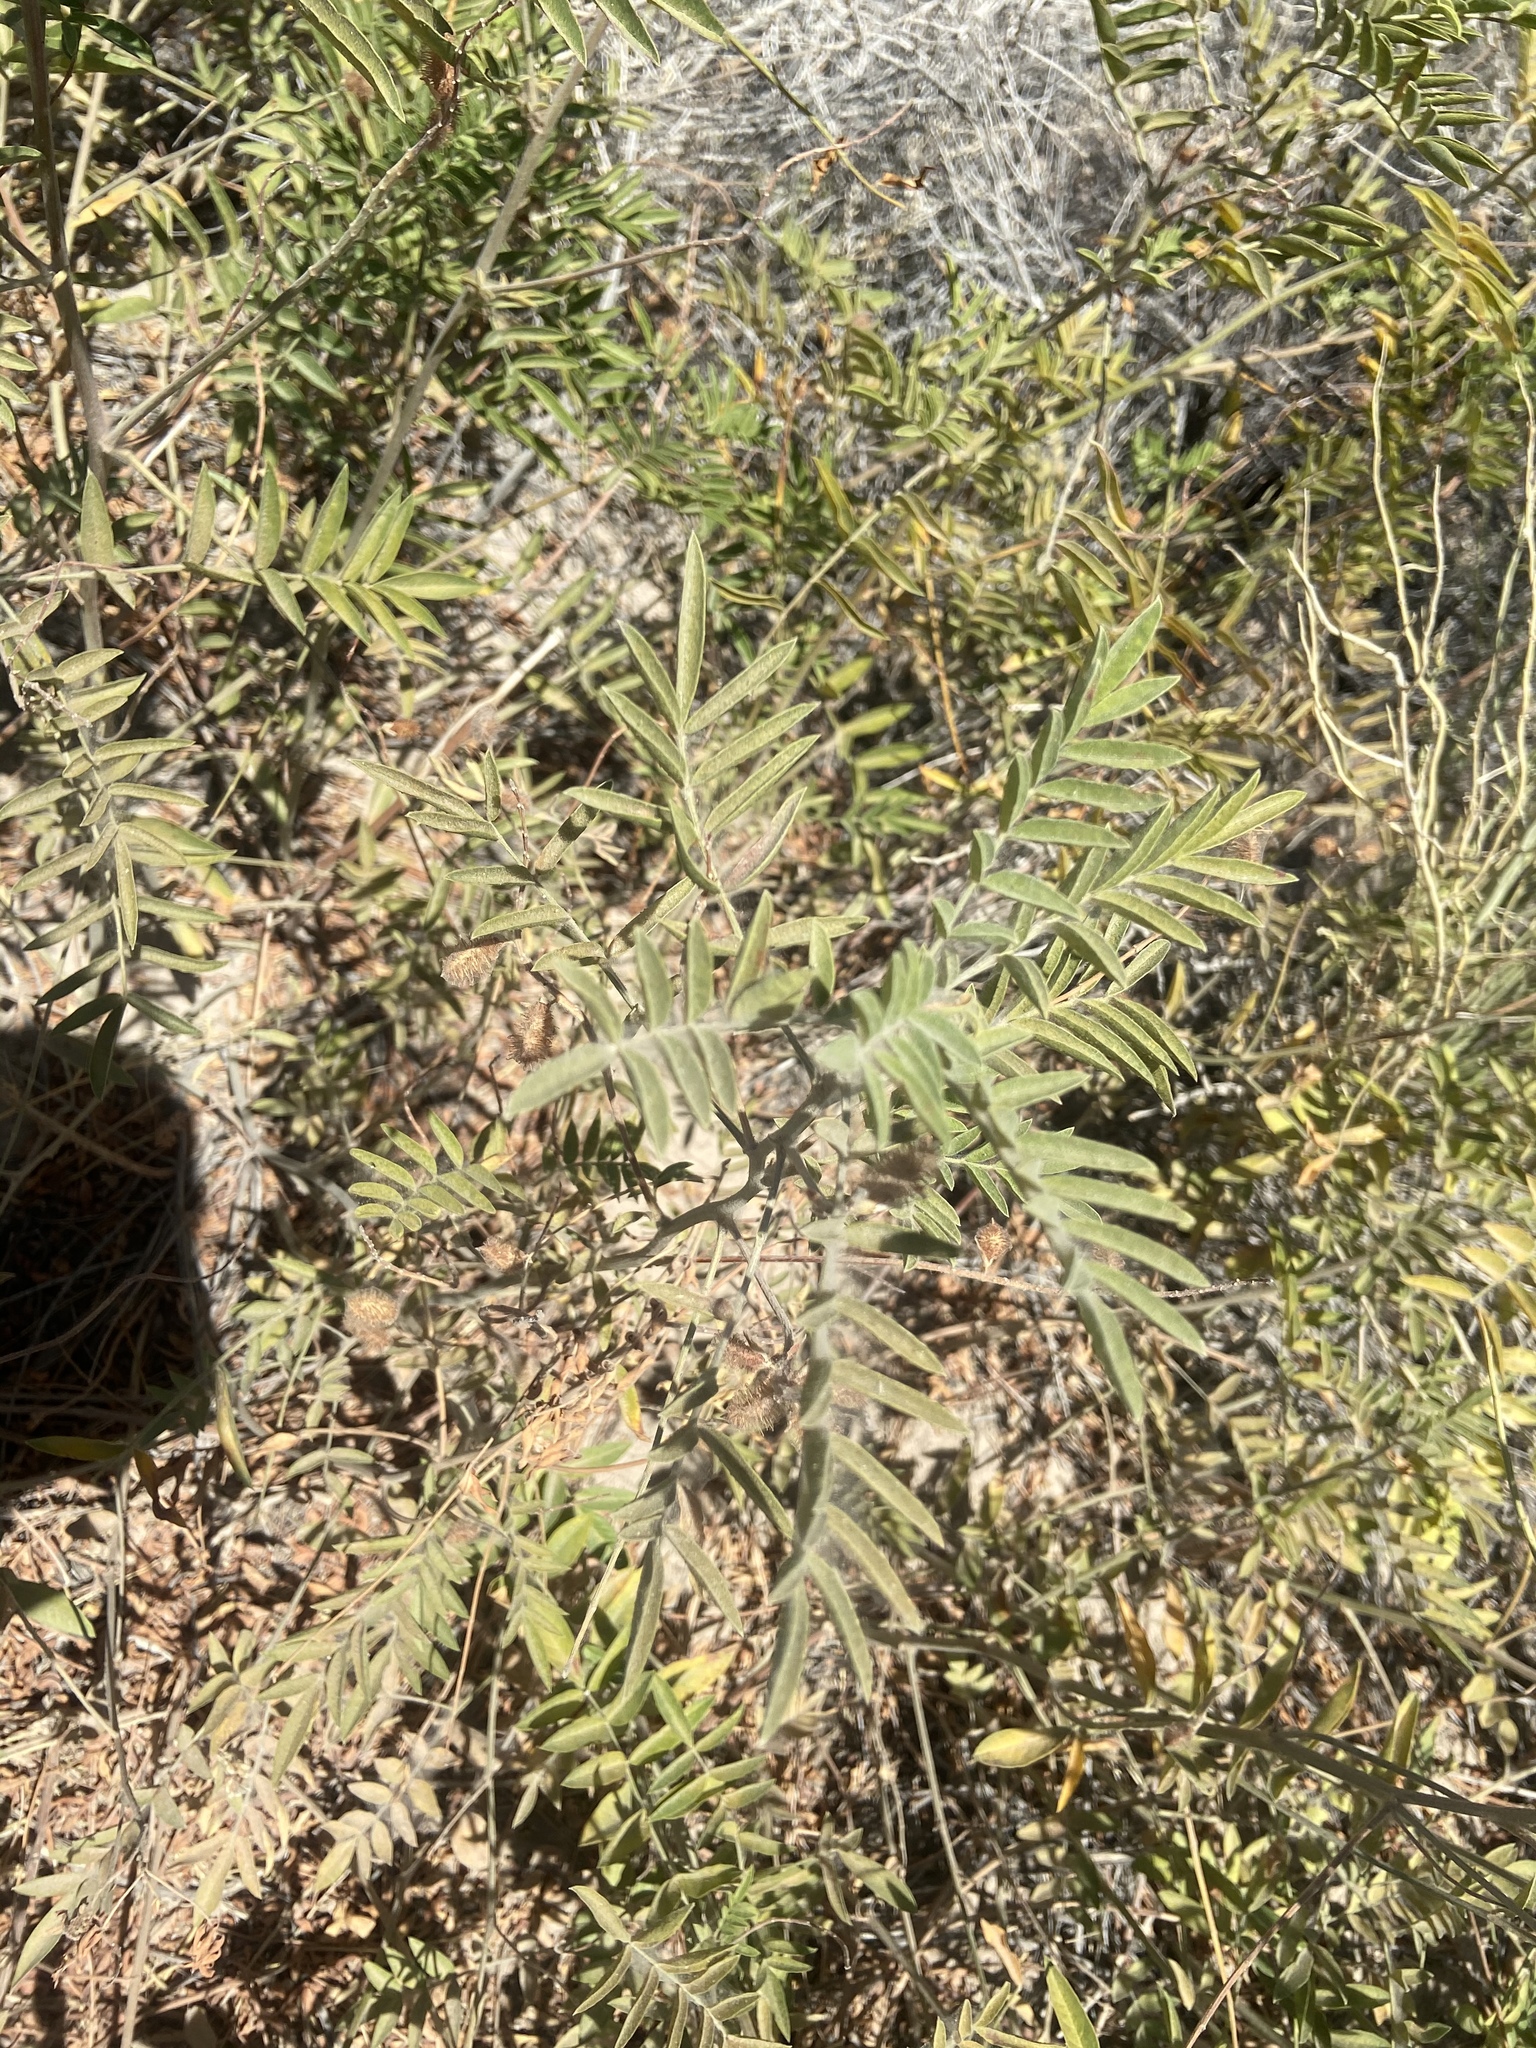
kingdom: Plantae
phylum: Tracheophyta
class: Magnoliopsida
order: Fabales
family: Fabaceae
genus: Glycyrrhiza
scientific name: Glycyrrhiza lepidota
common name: American liquorice
